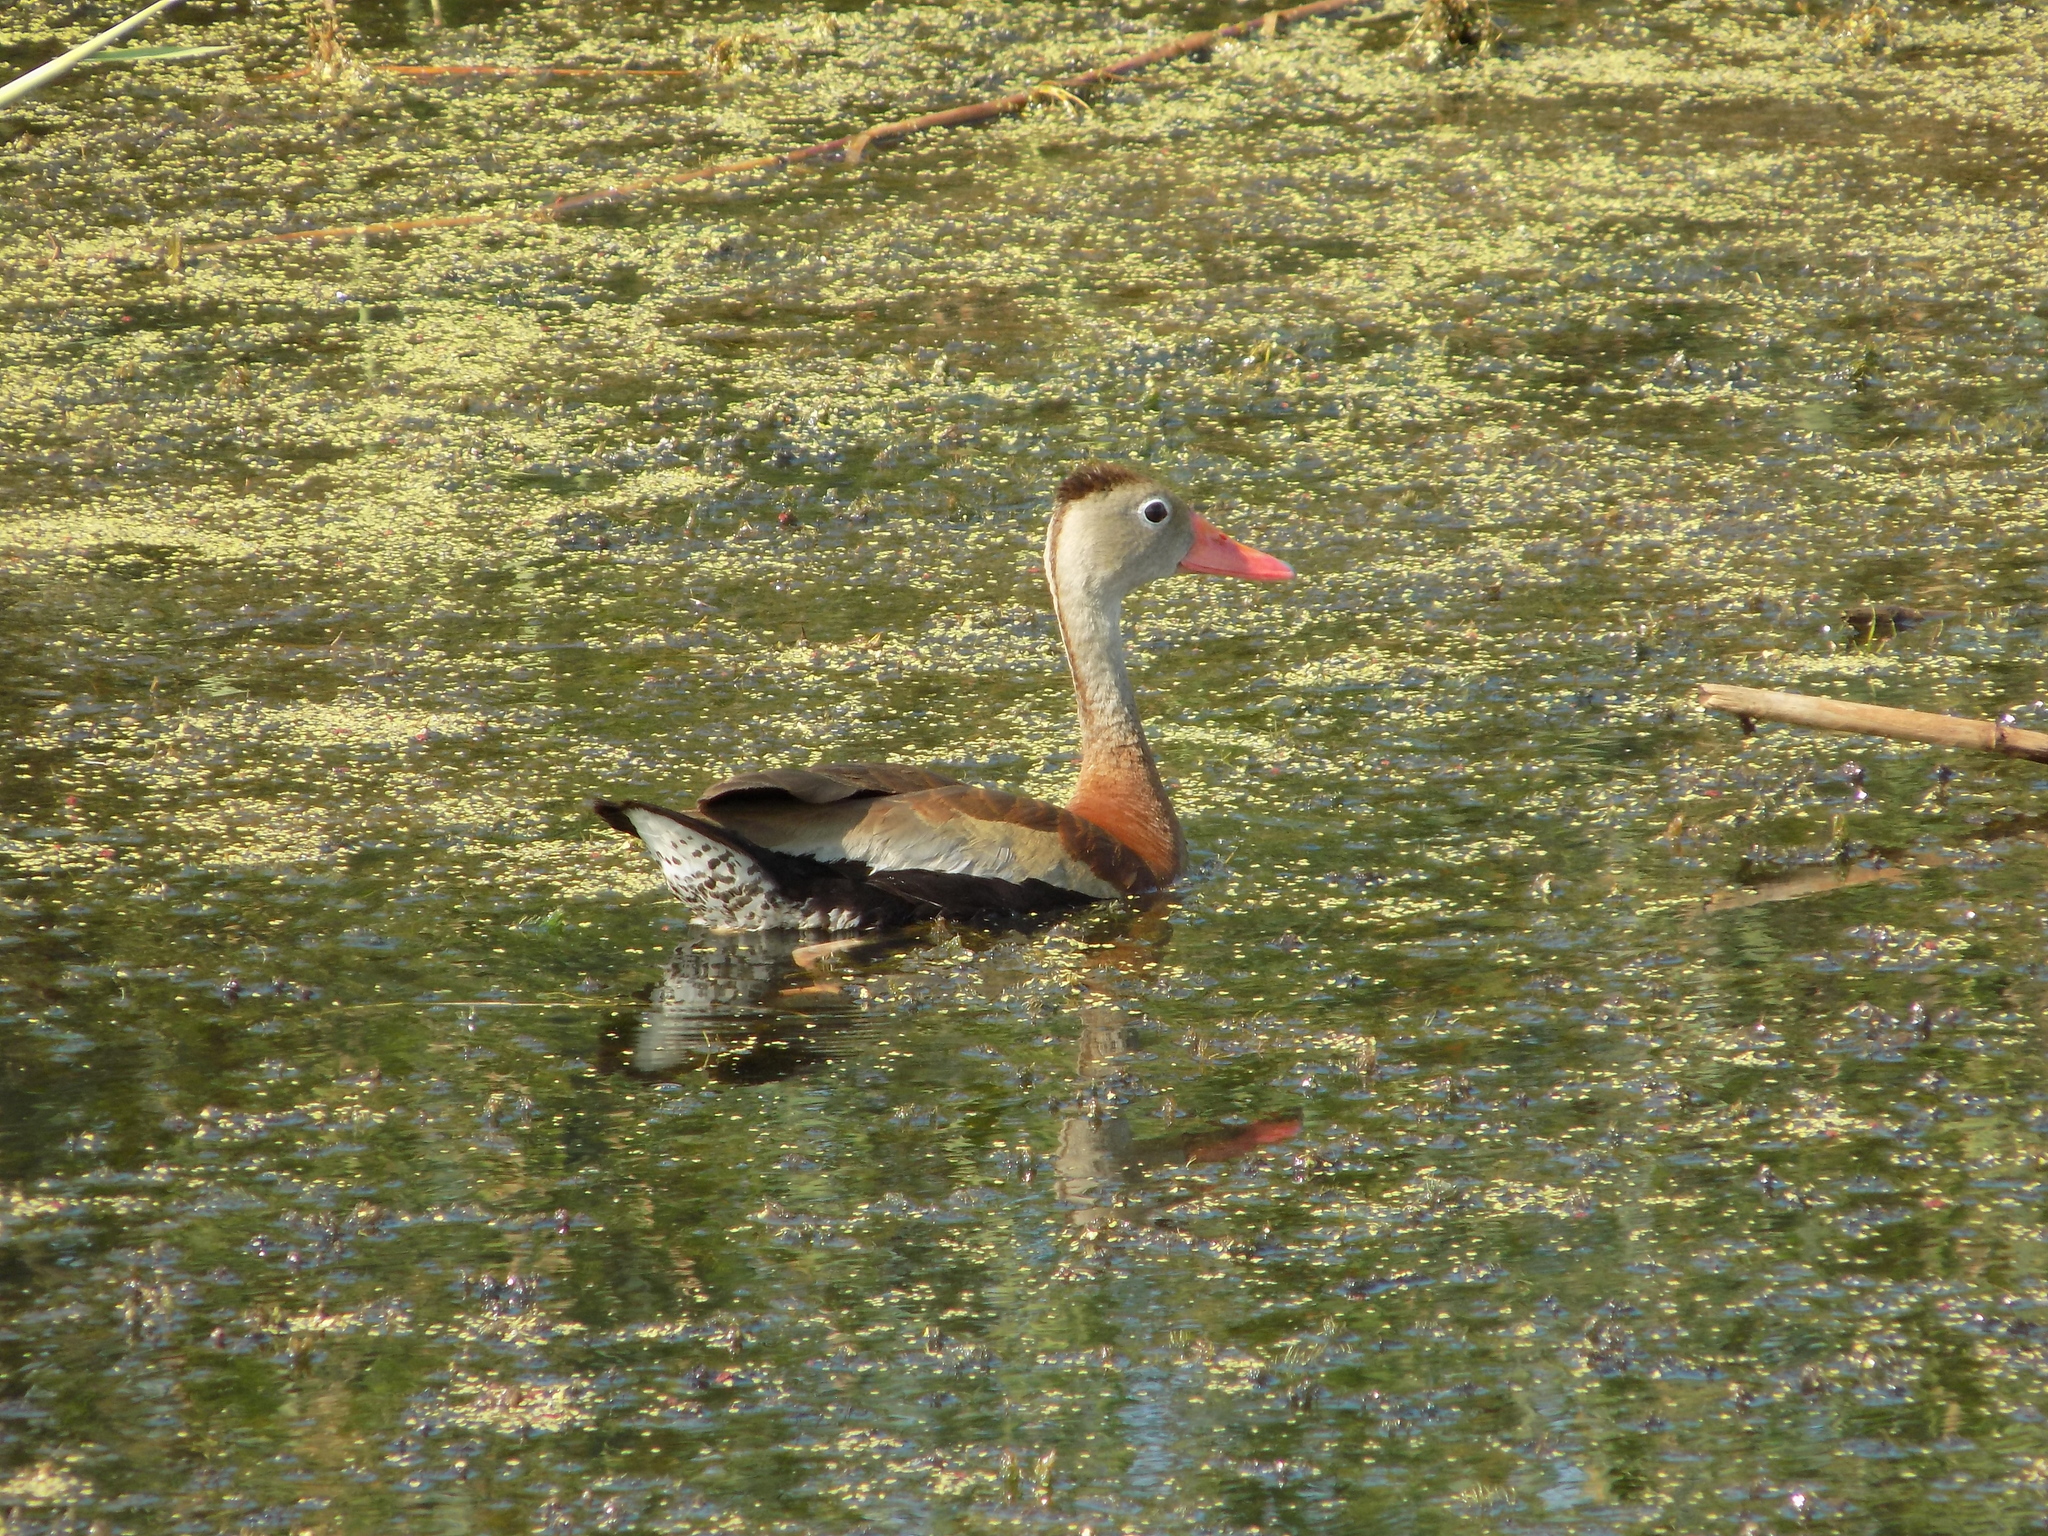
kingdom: Animalia
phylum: Chordata
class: Aves
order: Anseriformes
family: Anatidae
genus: Dendrocygna
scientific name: Dendrocygna autumnalis
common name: Black-bellied whistling duck
